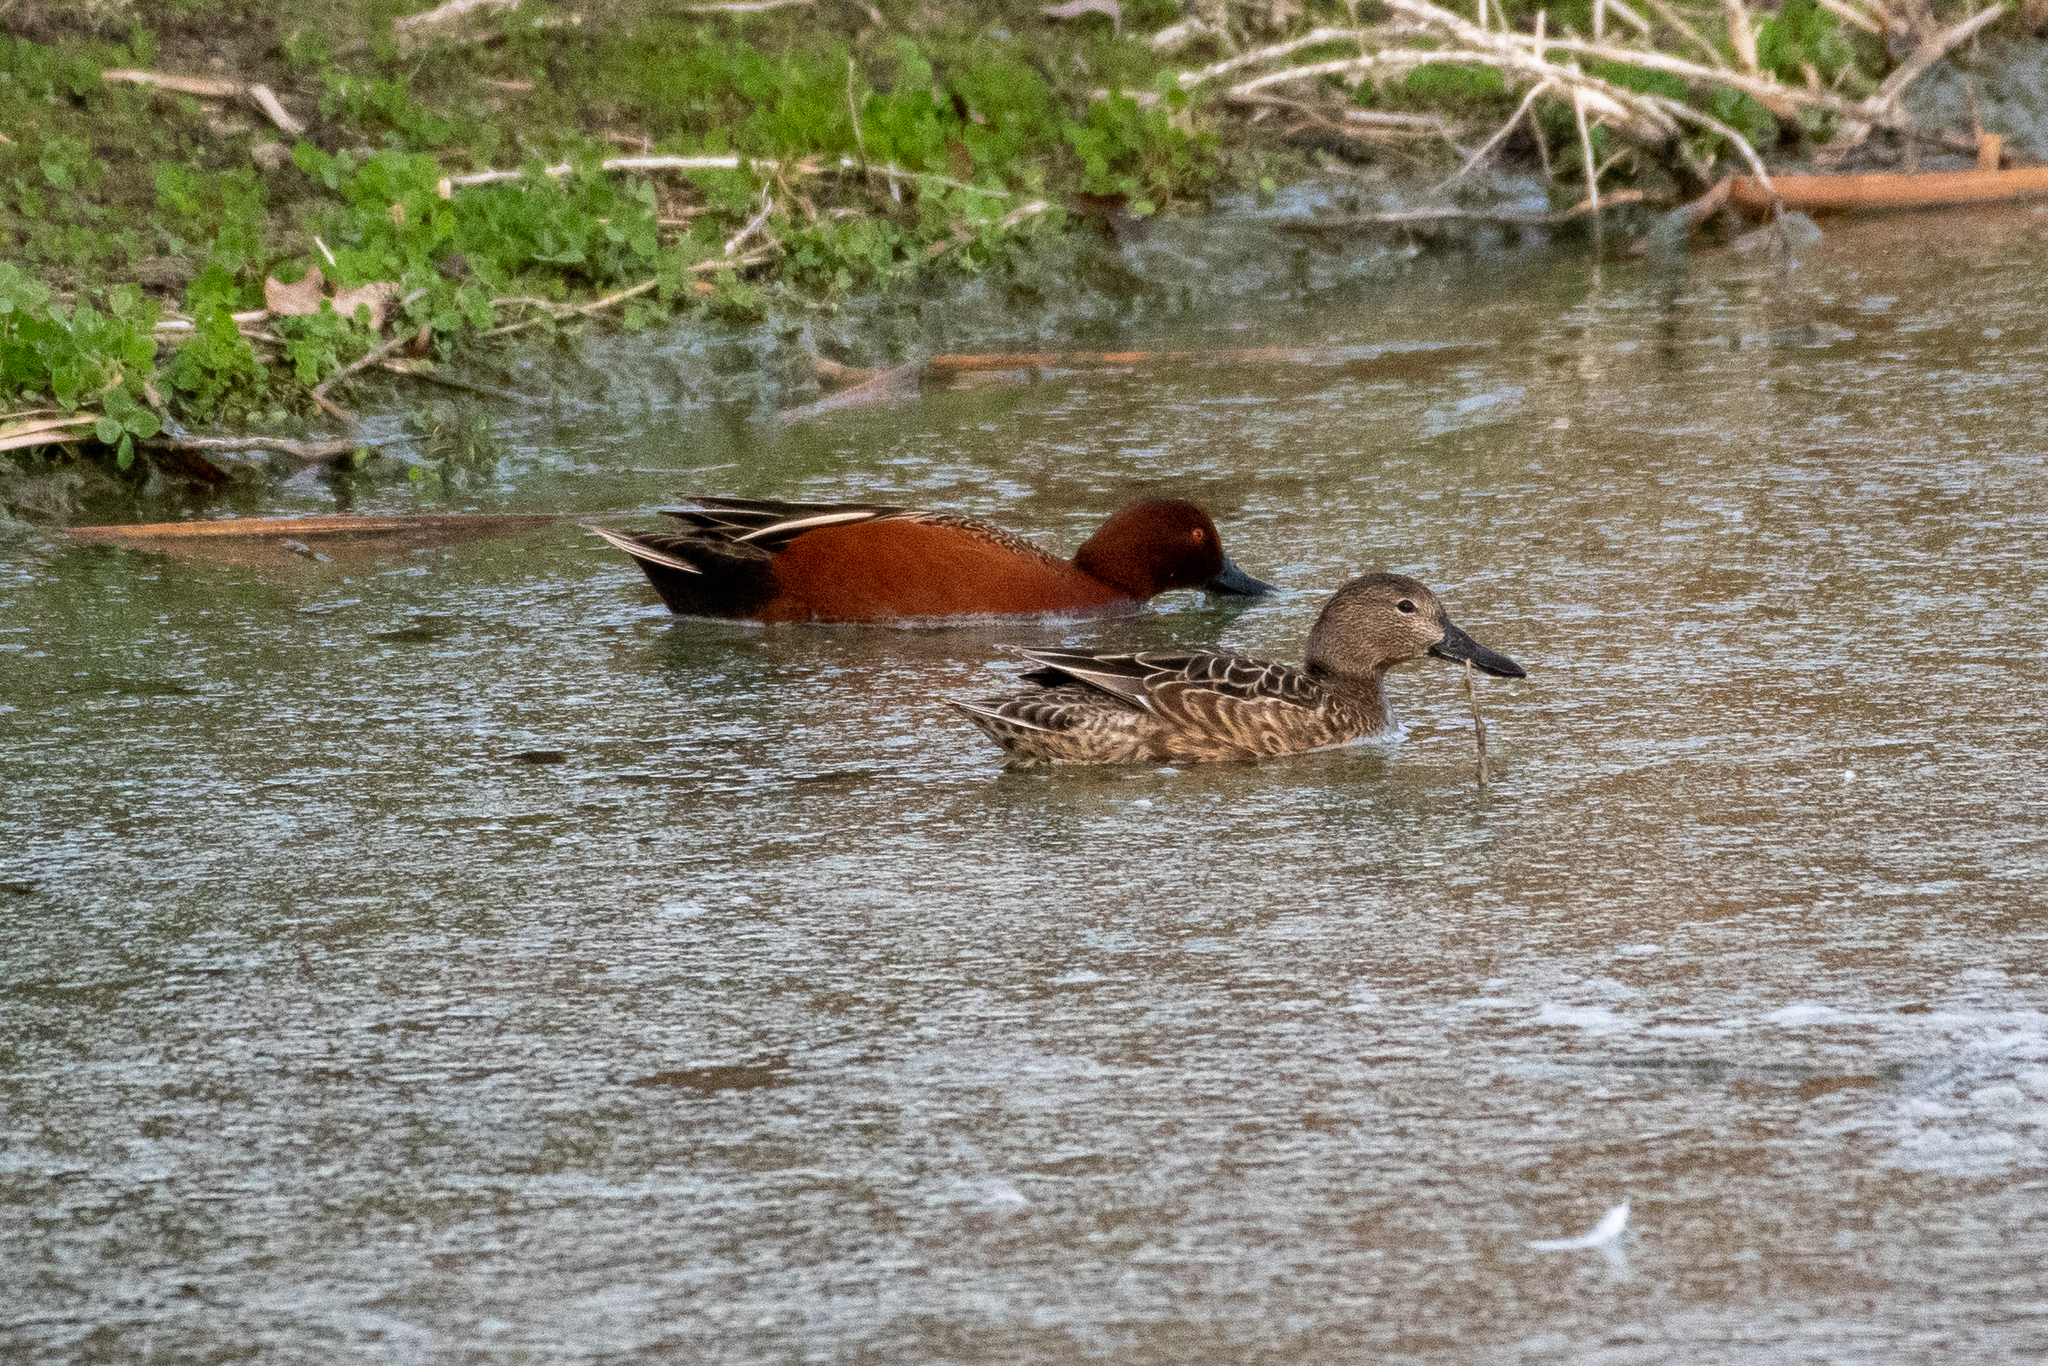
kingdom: Animalia
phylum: Chordata
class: Aves
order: Anseriformes
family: Anatidae
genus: Spatula
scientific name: Spatula cyanoptera
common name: Cinnamon teal
